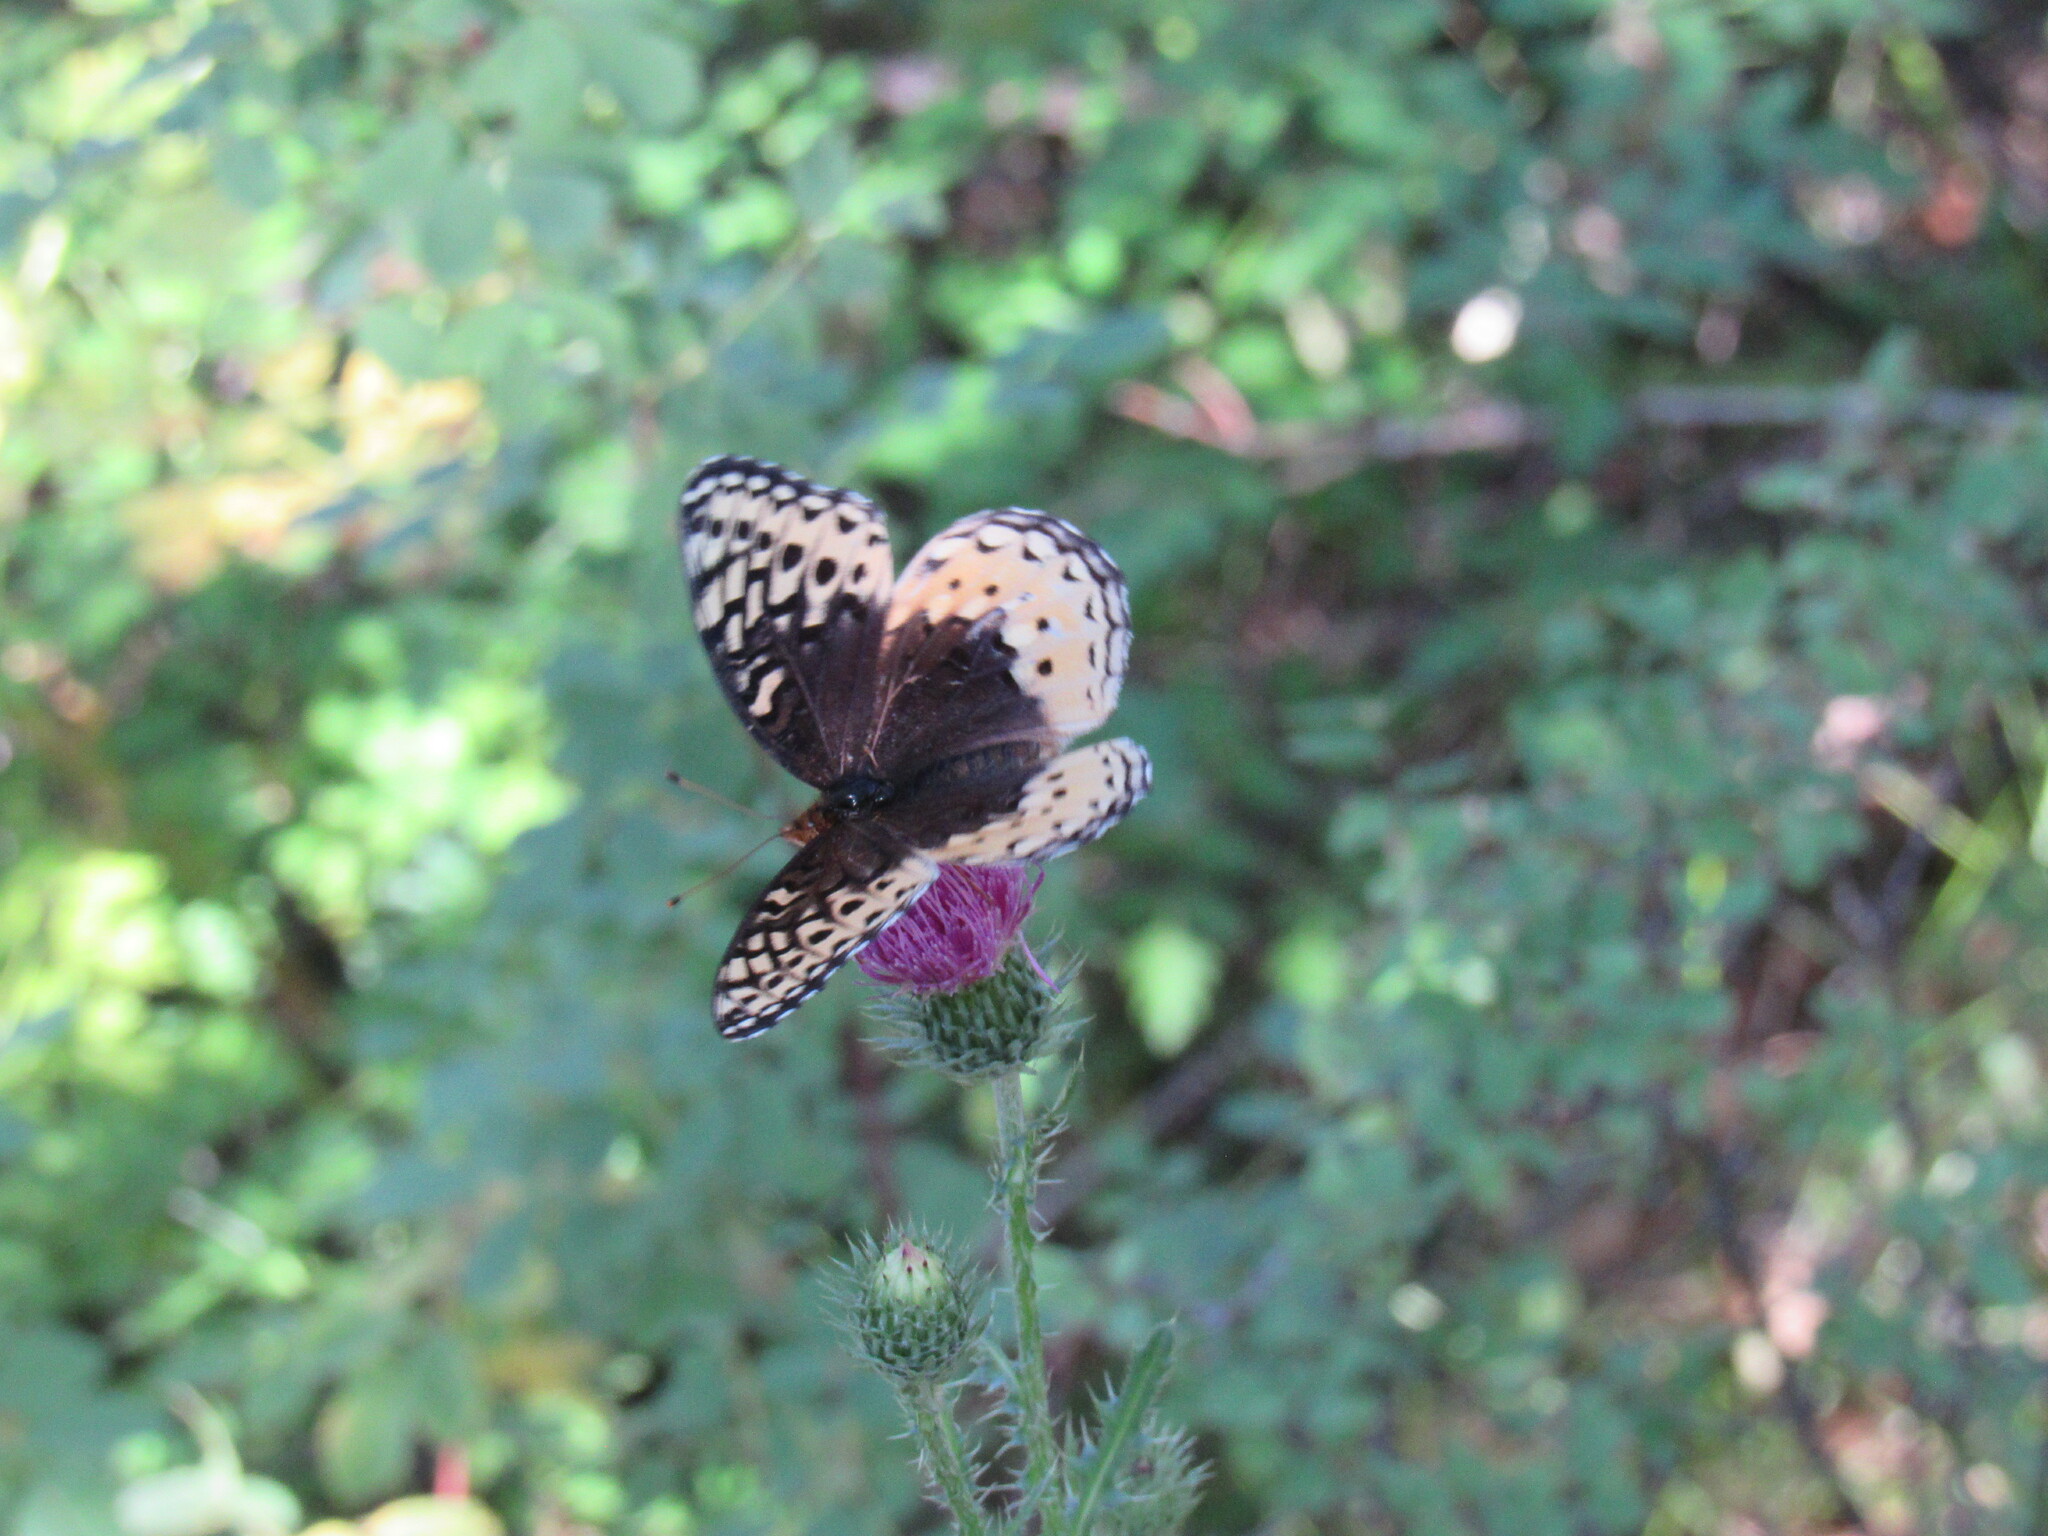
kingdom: Animalia
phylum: Arthropoda
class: Insecta
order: Lepidoptera
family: Nymphalidae
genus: Speyeria
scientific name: Speyeria cybele
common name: Great spangled fritillary
